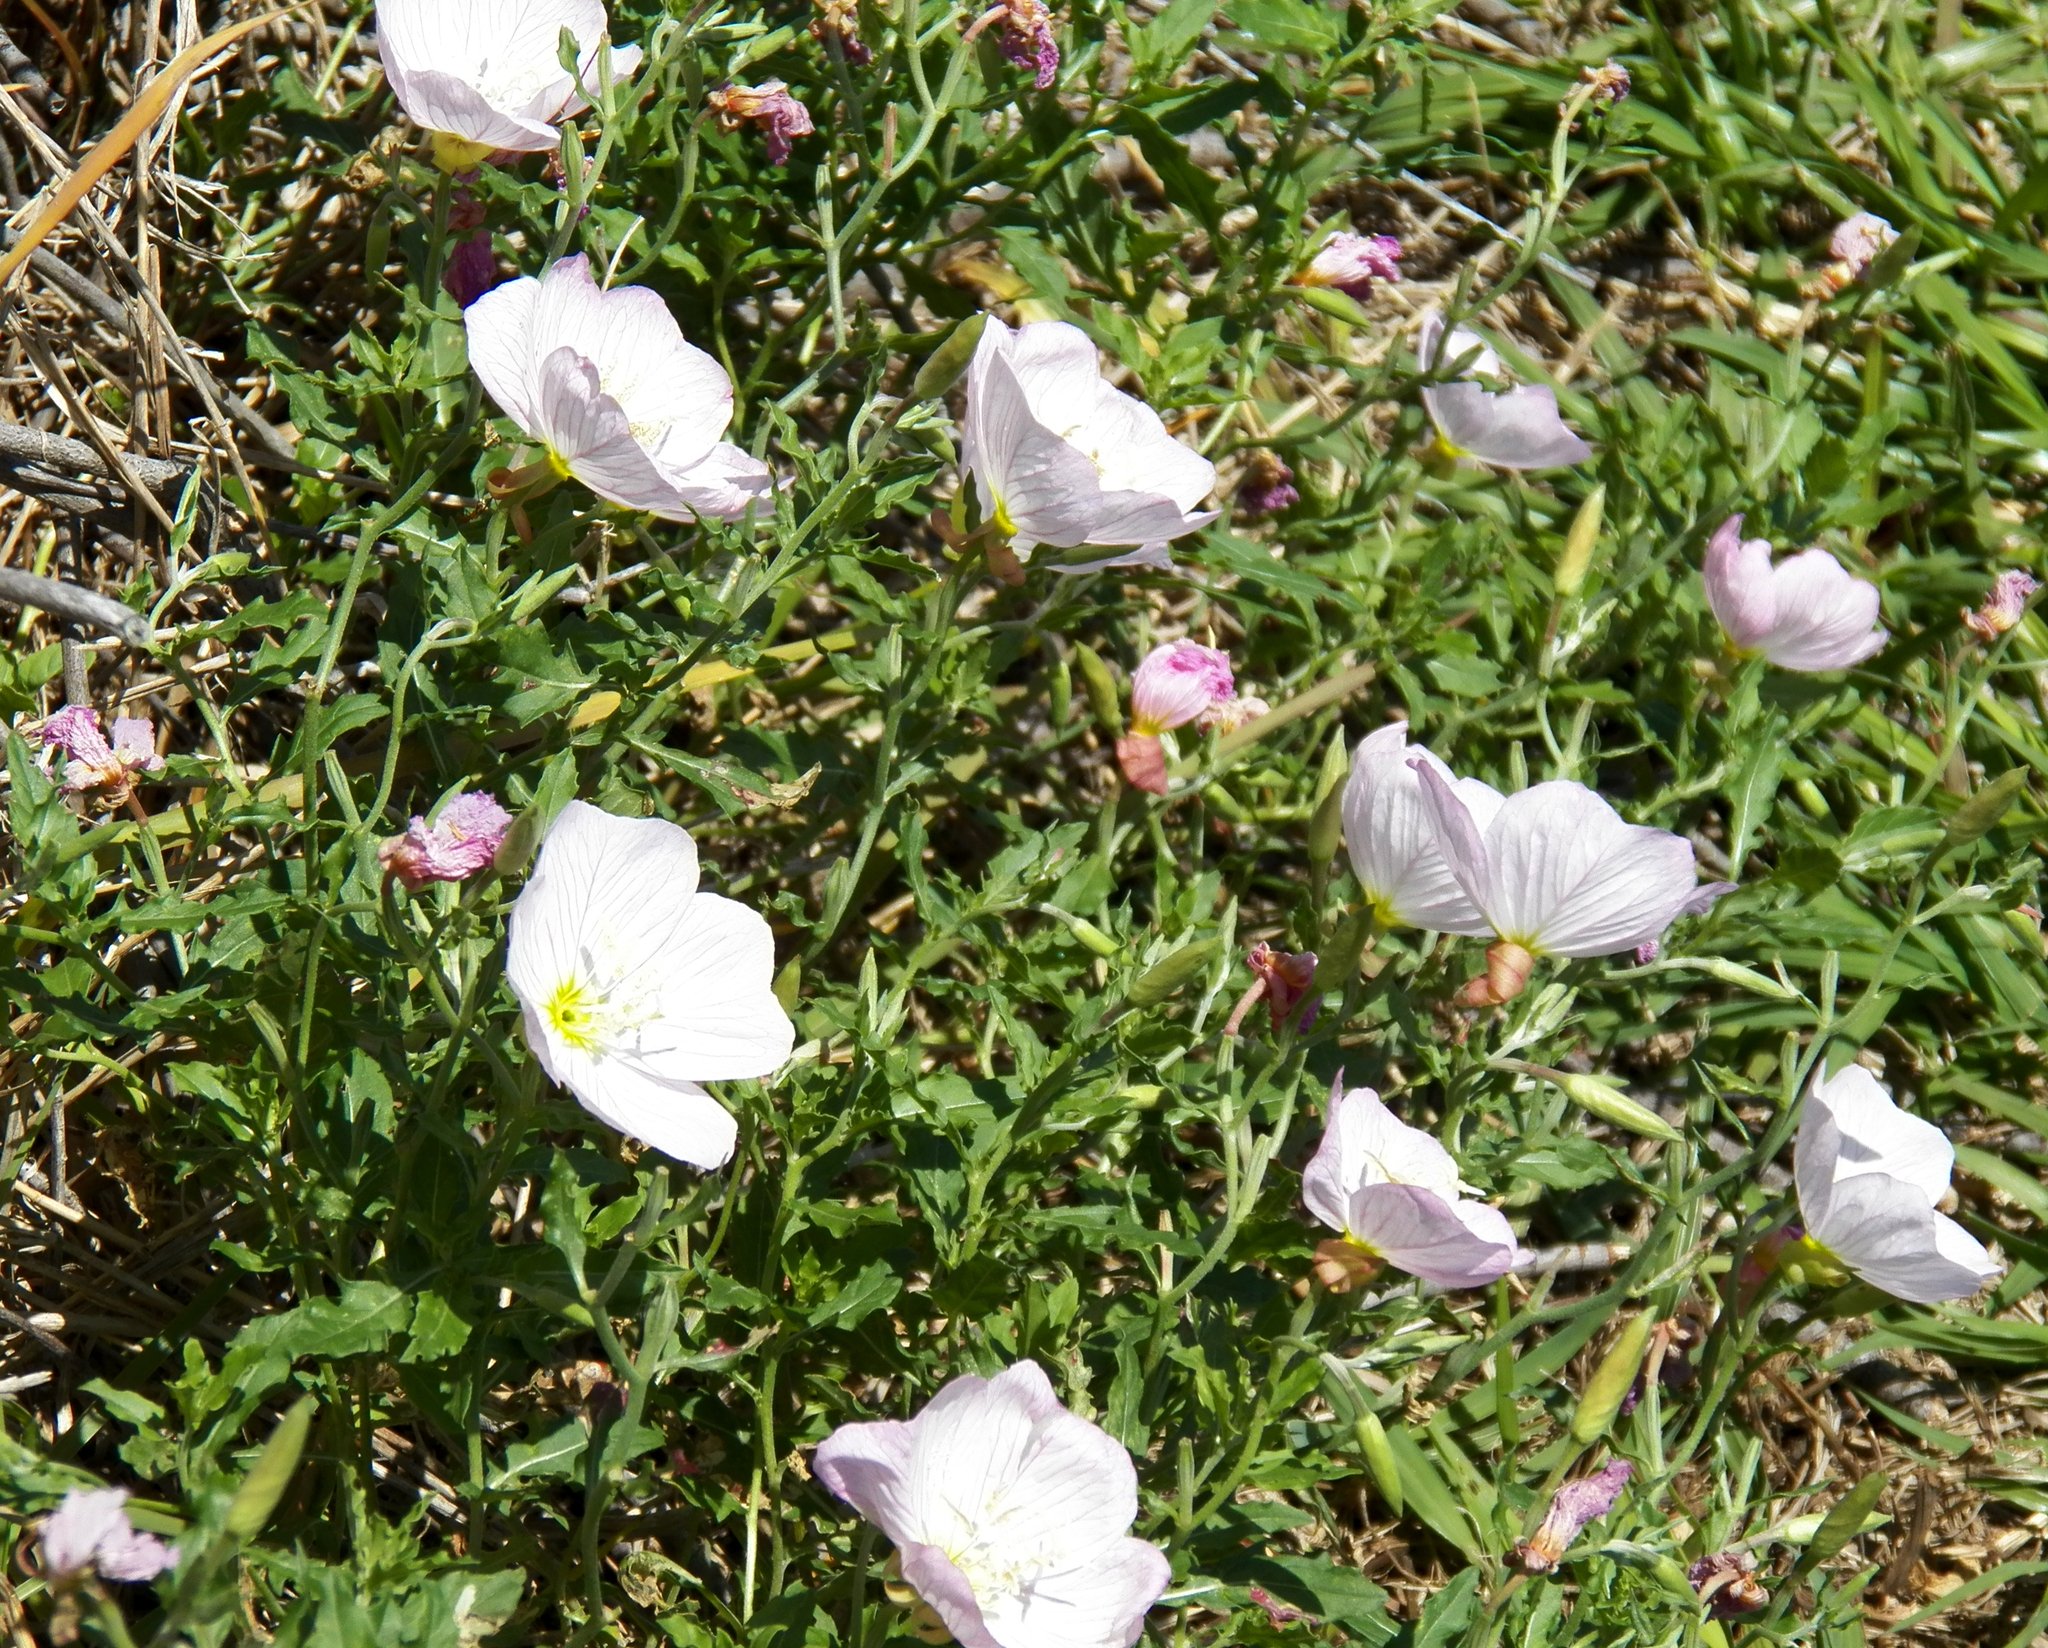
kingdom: Plantae
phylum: Tracheophyta
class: Magnoliopsida
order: Myrtales
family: Onagraceae
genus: Oenothera
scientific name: Oenothera speciosa
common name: White evening-primrose
